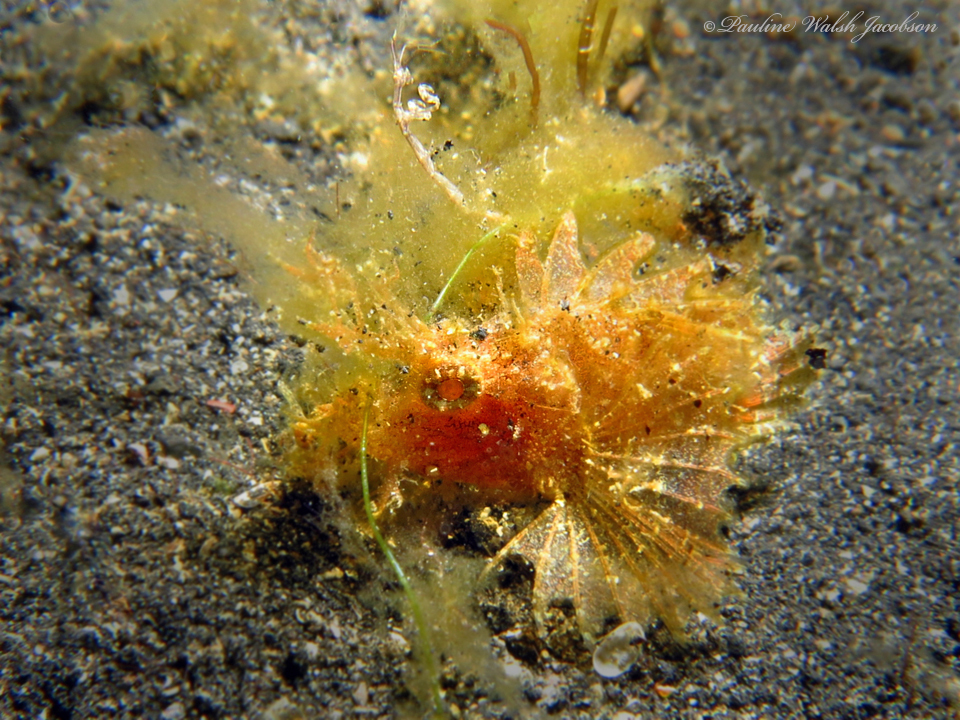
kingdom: Animalia
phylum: Chordata
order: Scorpaeniformes
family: Scorpaenidae
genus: Pteroidichthys
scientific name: Pteroidichthys amboinensis
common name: Ambon scorpionfish
